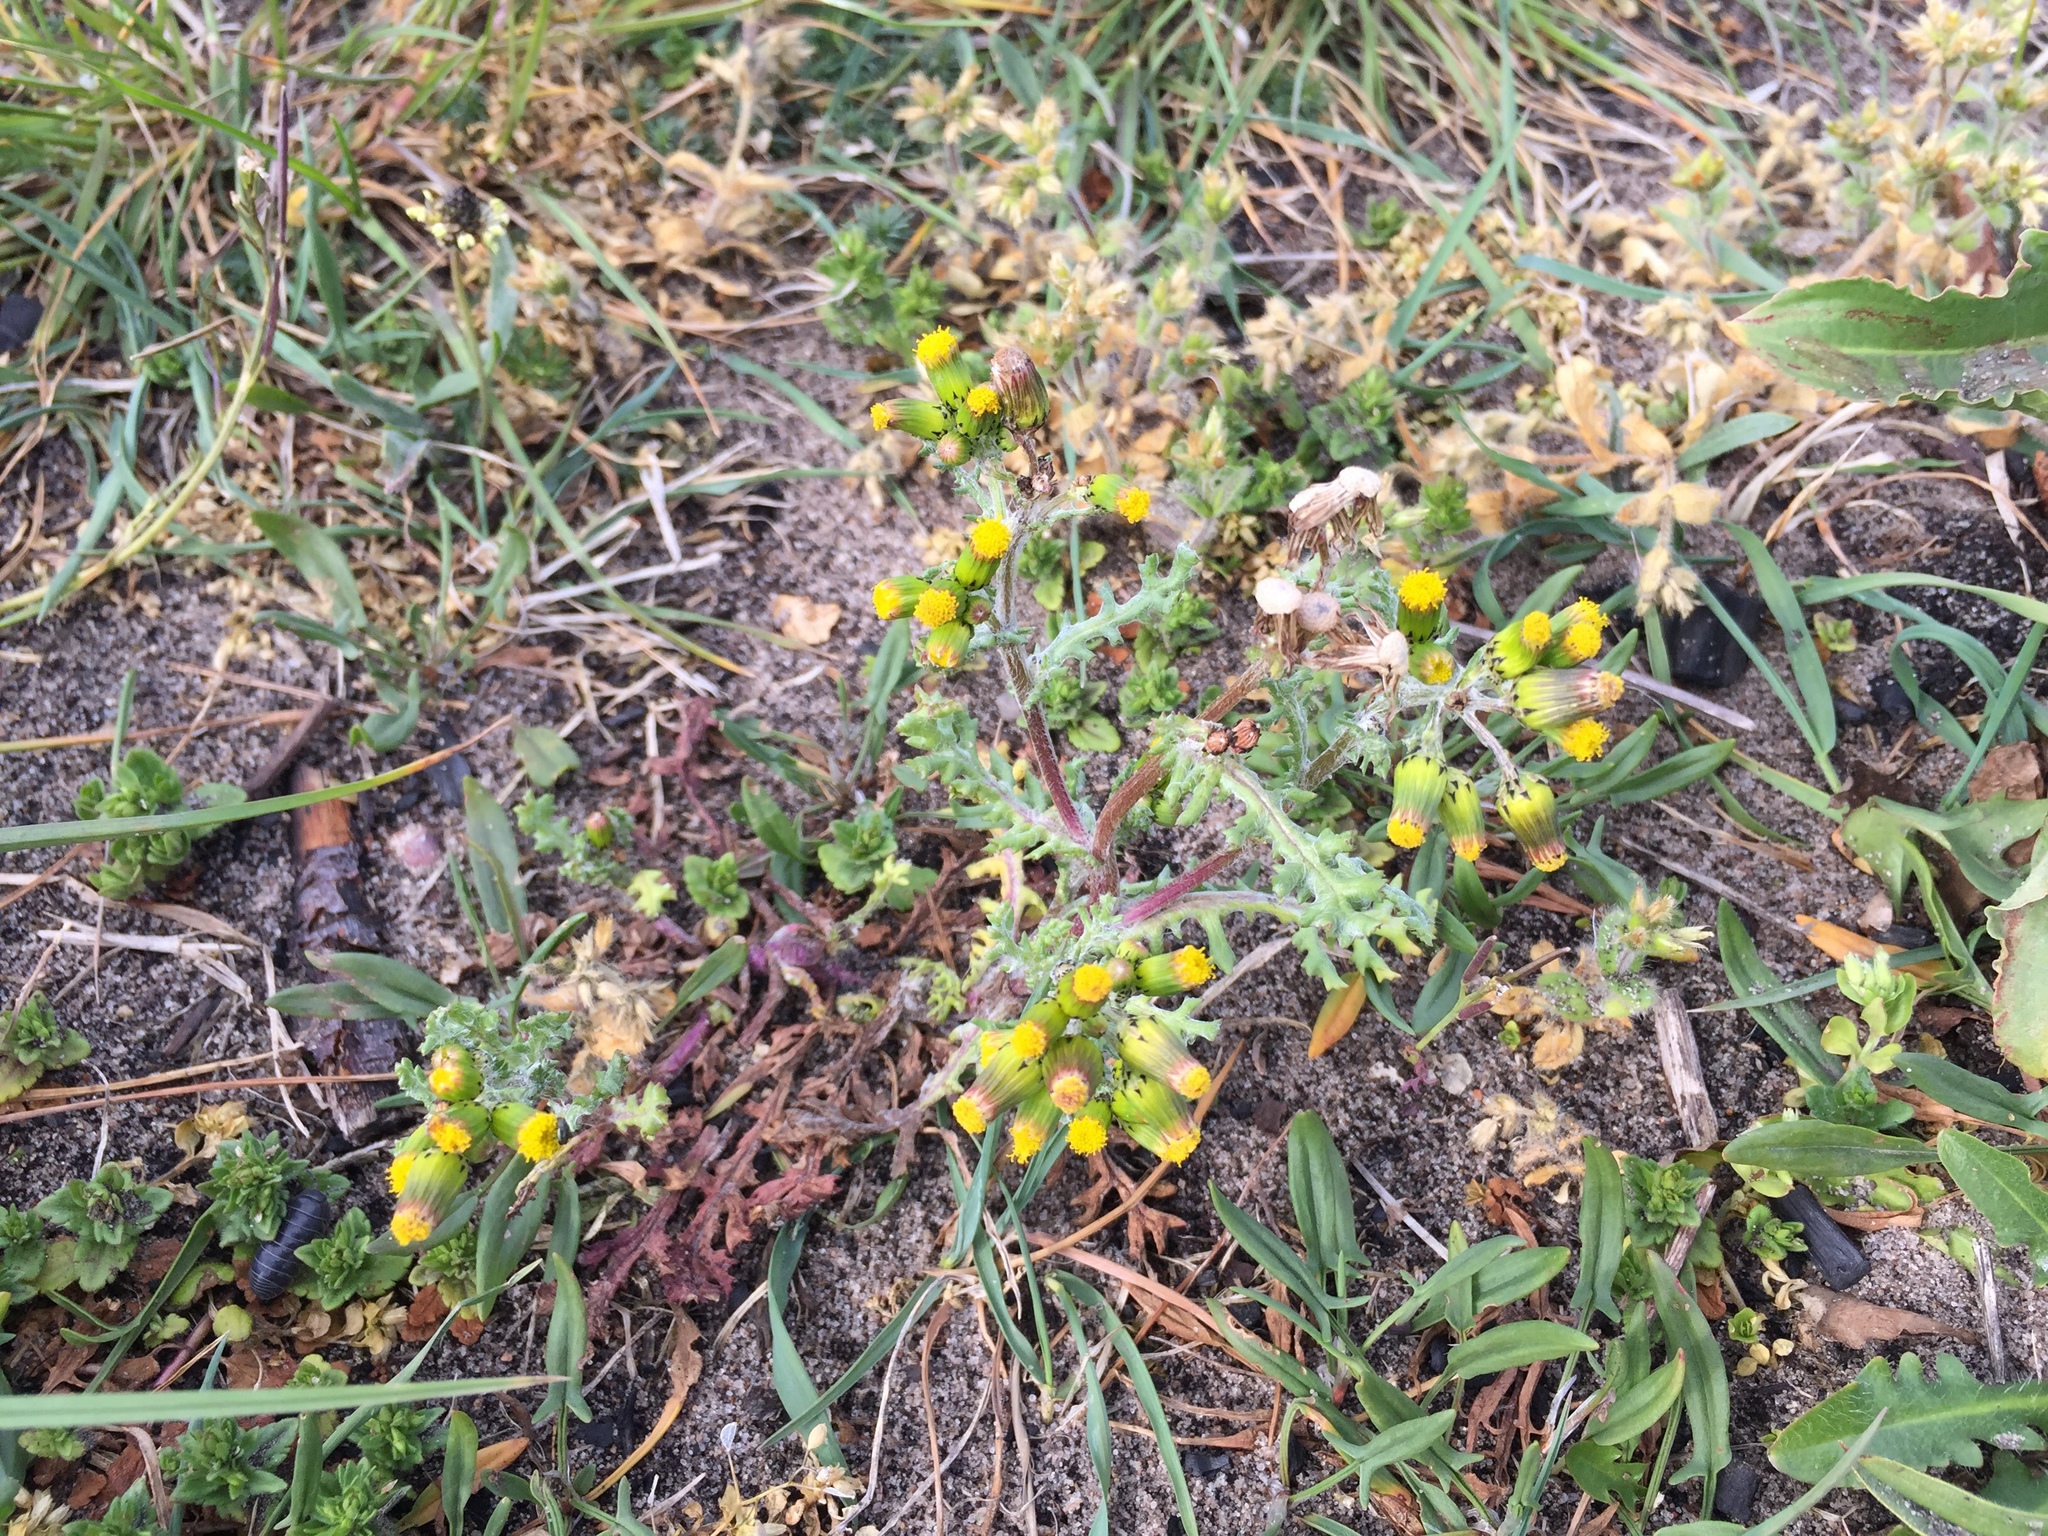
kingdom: Plantae
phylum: Tracheophyta
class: Magnoliopsida
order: Asterales
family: Asteraceae
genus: Senecio
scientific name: Senecio vulgaris
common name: Old-man-in-the-spring
